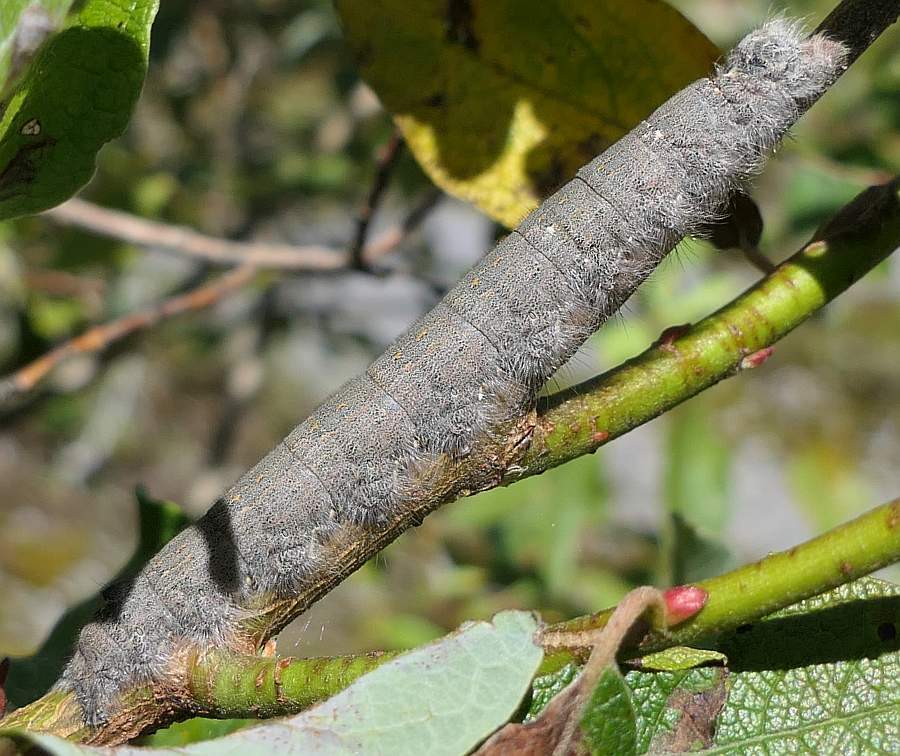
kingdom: Animalia
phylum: Arthropoda
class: Insecta
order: Lepidoptera
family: Lasiocampidae
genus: Phyllodesma
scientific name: Phyllodesma americana
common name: American lappet moth
